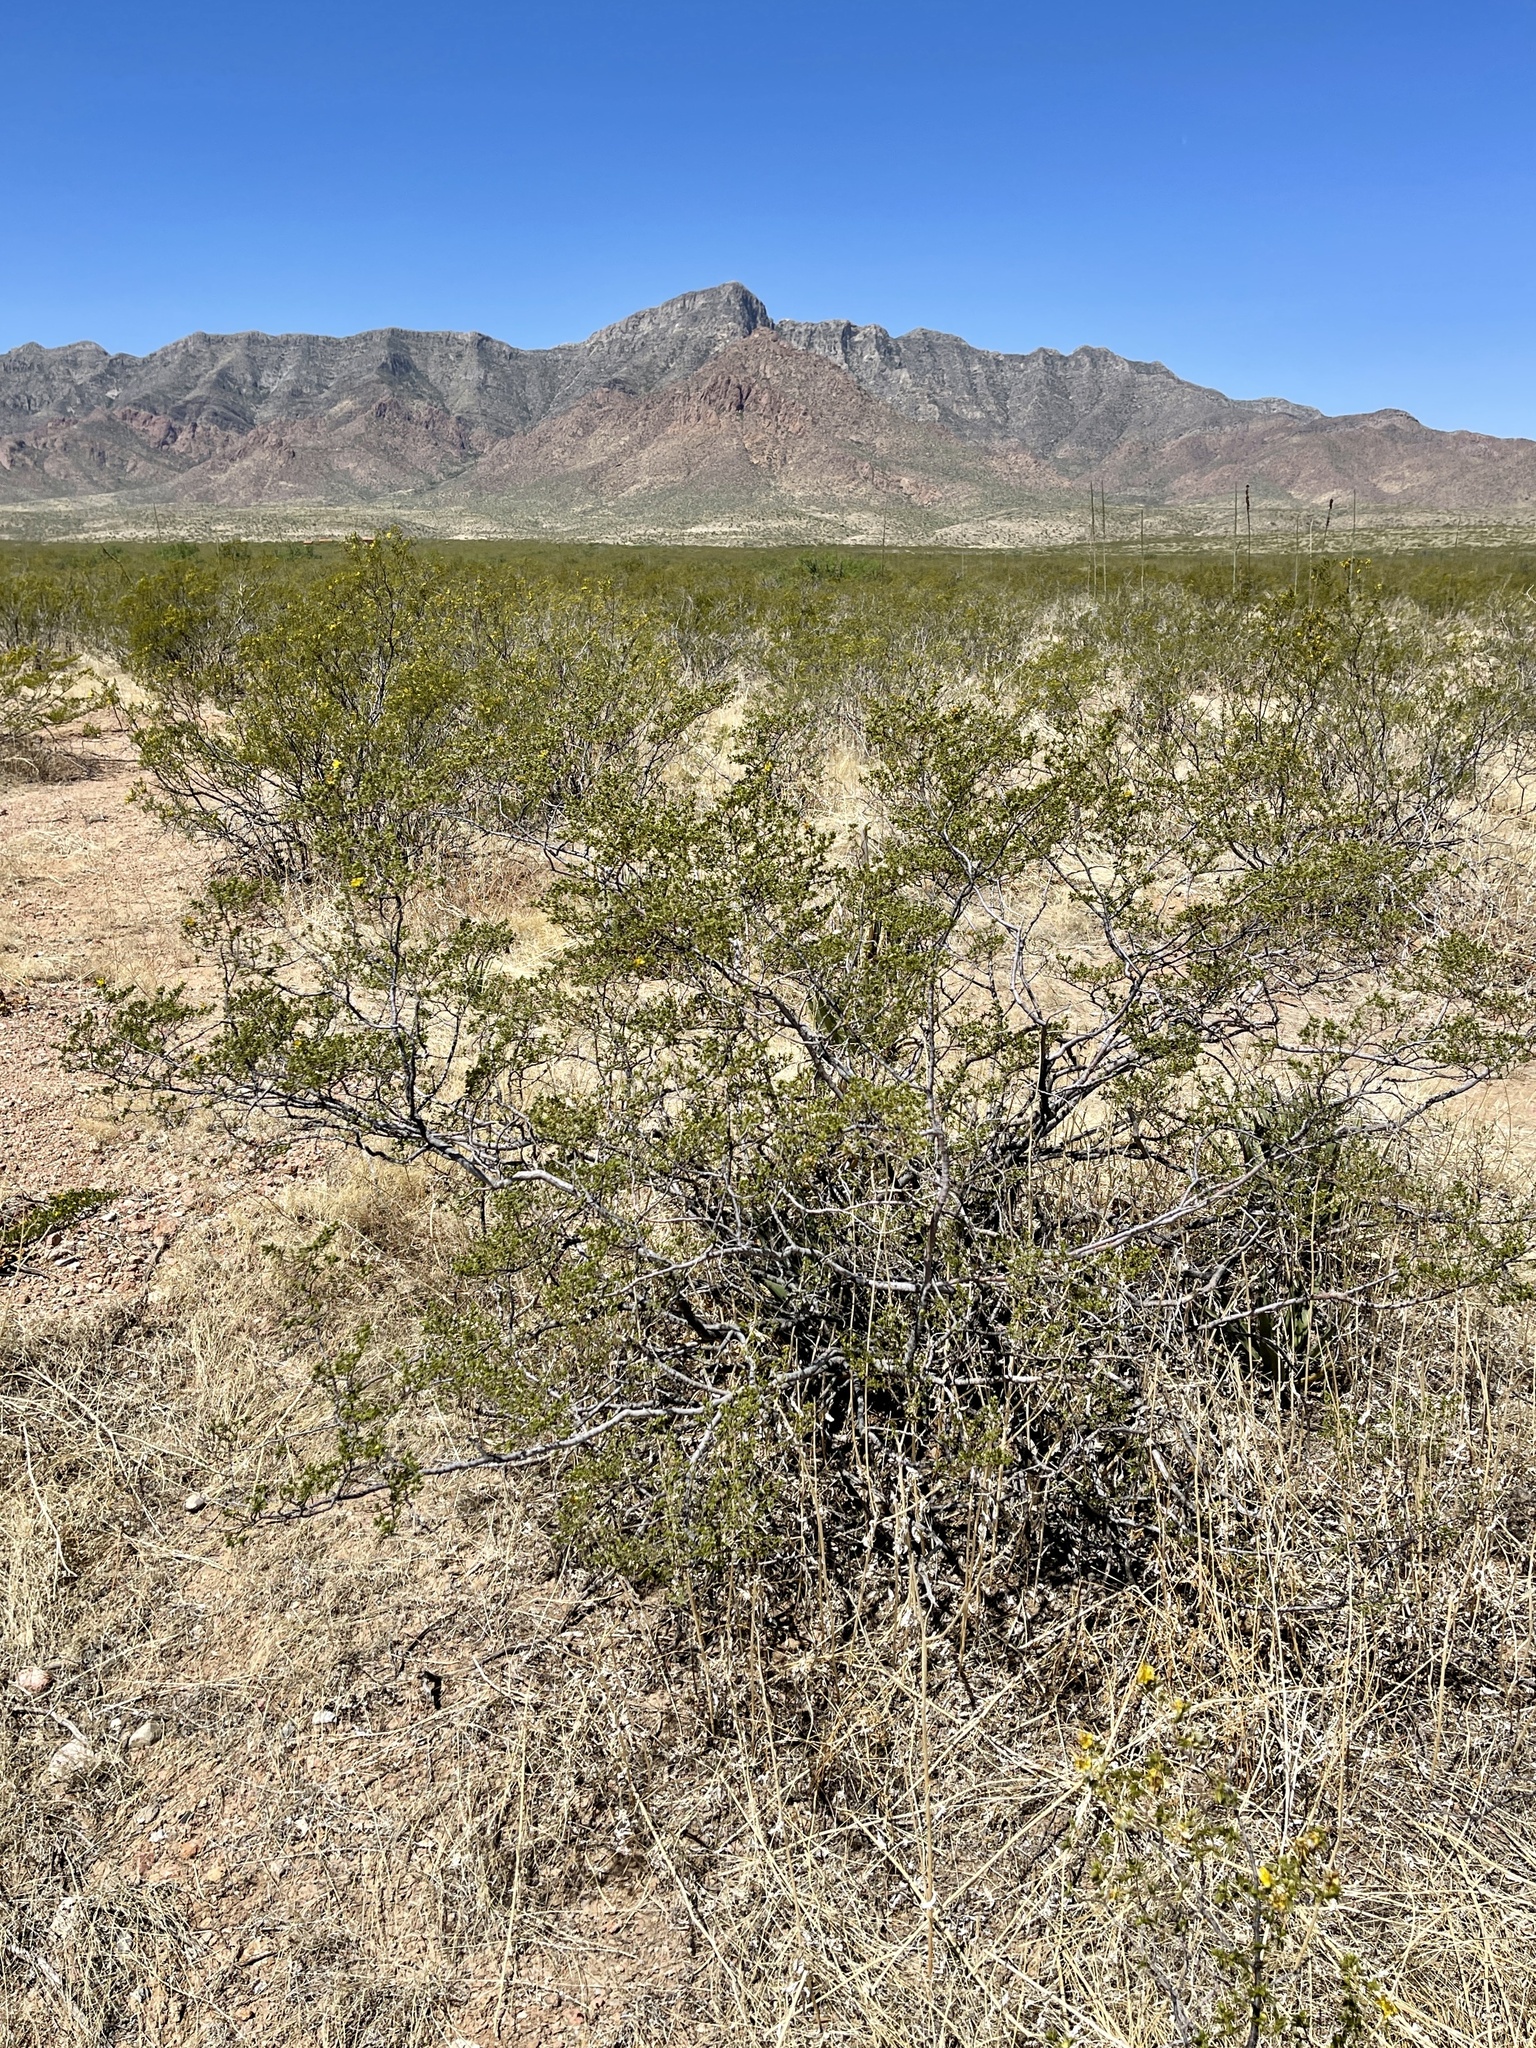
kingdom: Plantae
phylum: Tracheophyta
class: Magnoliopsida
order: Zygophyllales
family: Zygophyllaceae
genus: Larrea
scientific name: Larrea tridentata
